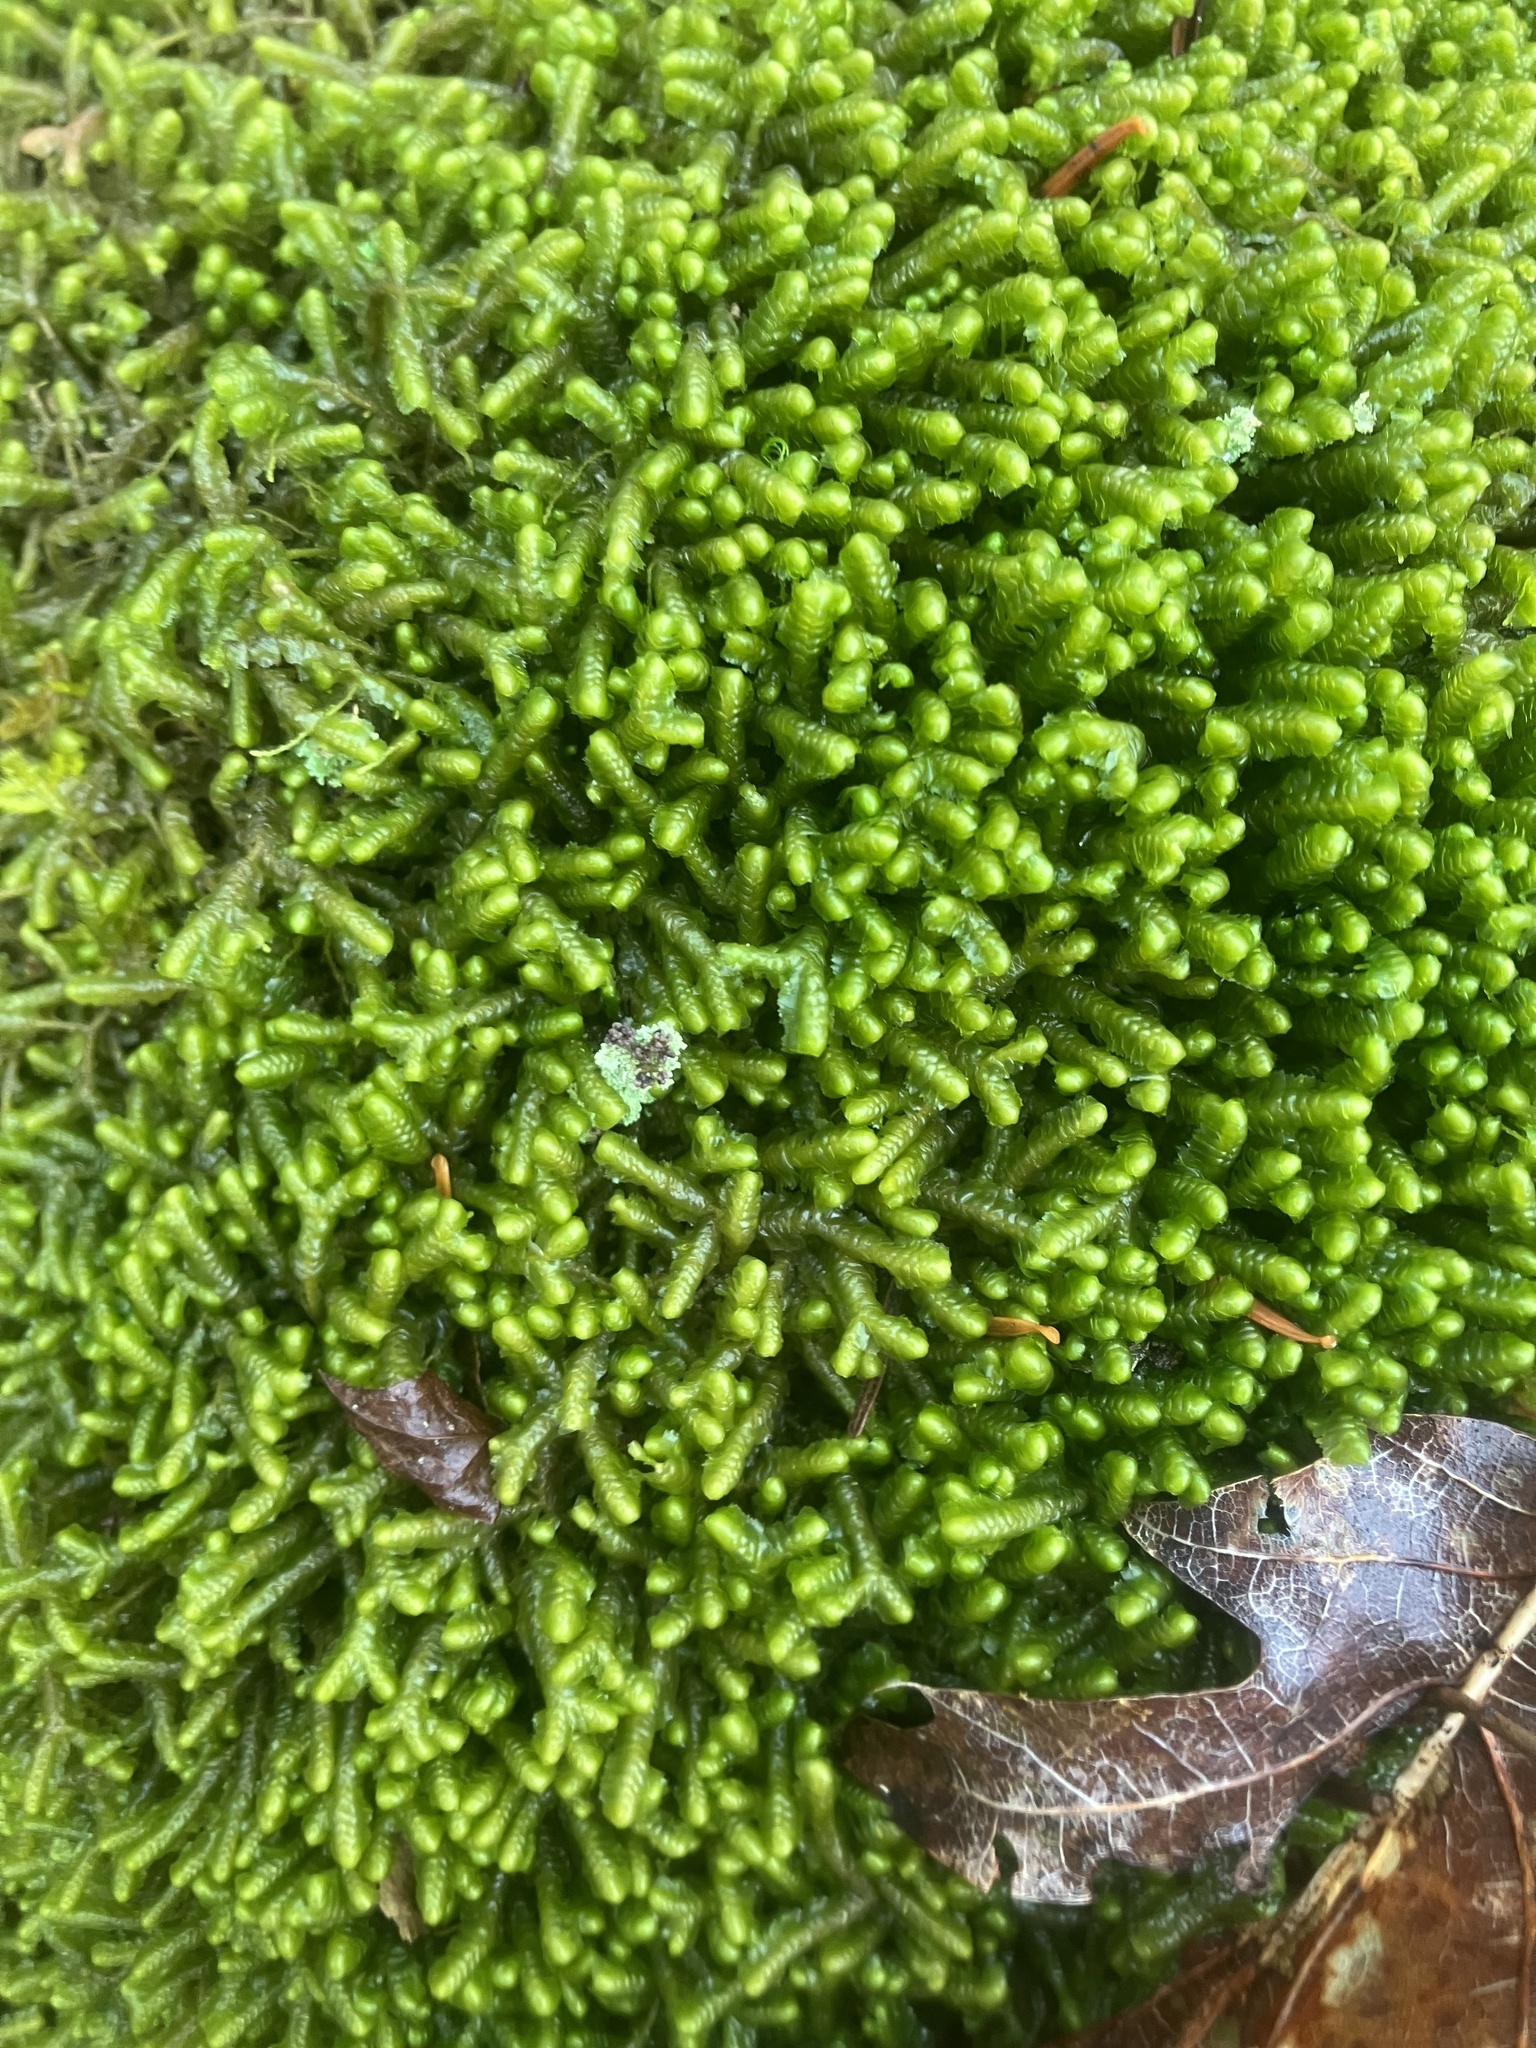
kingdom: Plantae
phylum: Marchantiophyta
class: Jungermanniopsida
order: Jungermanniales
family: Lepidoziaceae
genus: Bazzania
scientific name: Bazzania trilobata
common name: Three-lobed whipwort
